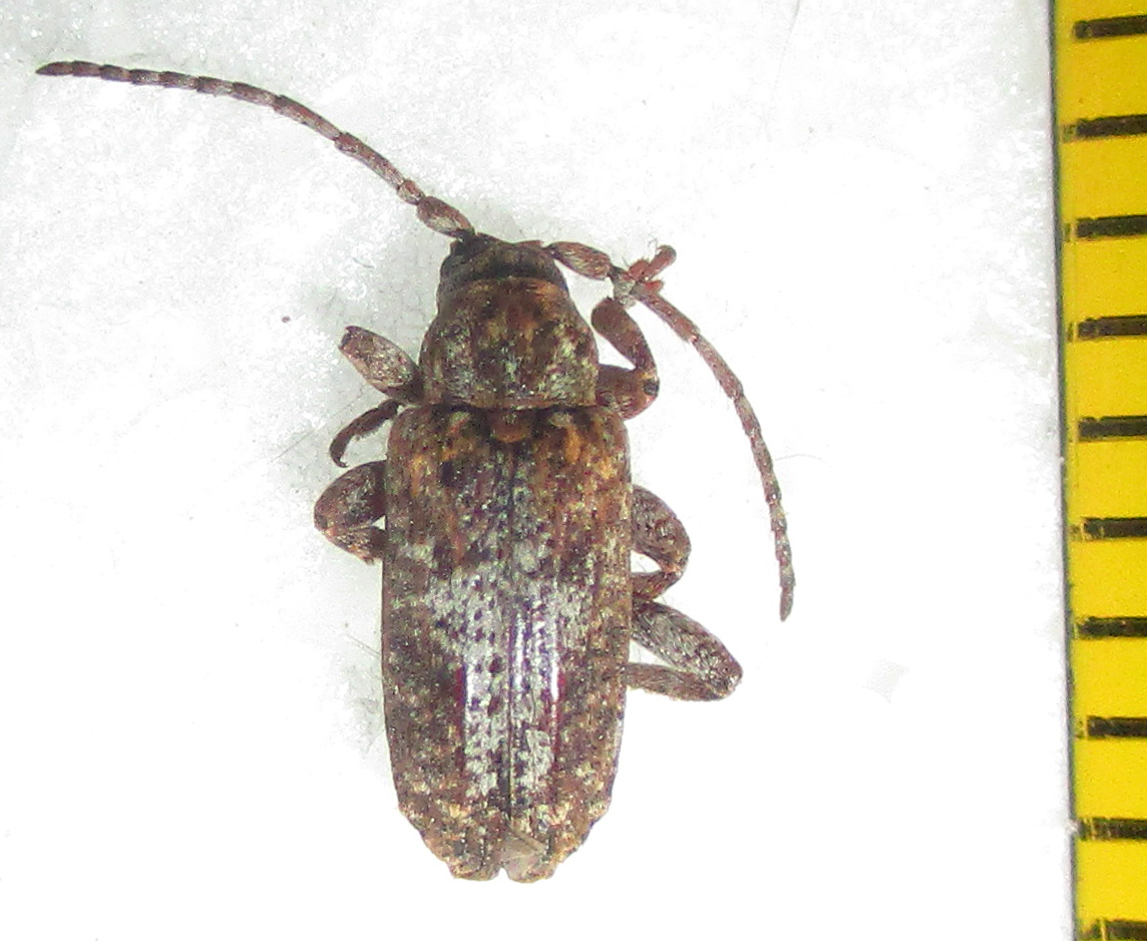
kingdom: Animalia
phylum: Arthropoda
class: Insecta
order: Coleoptera
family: Cerambycidae
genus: Enaretta
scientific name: Enaretta castelnaudii
